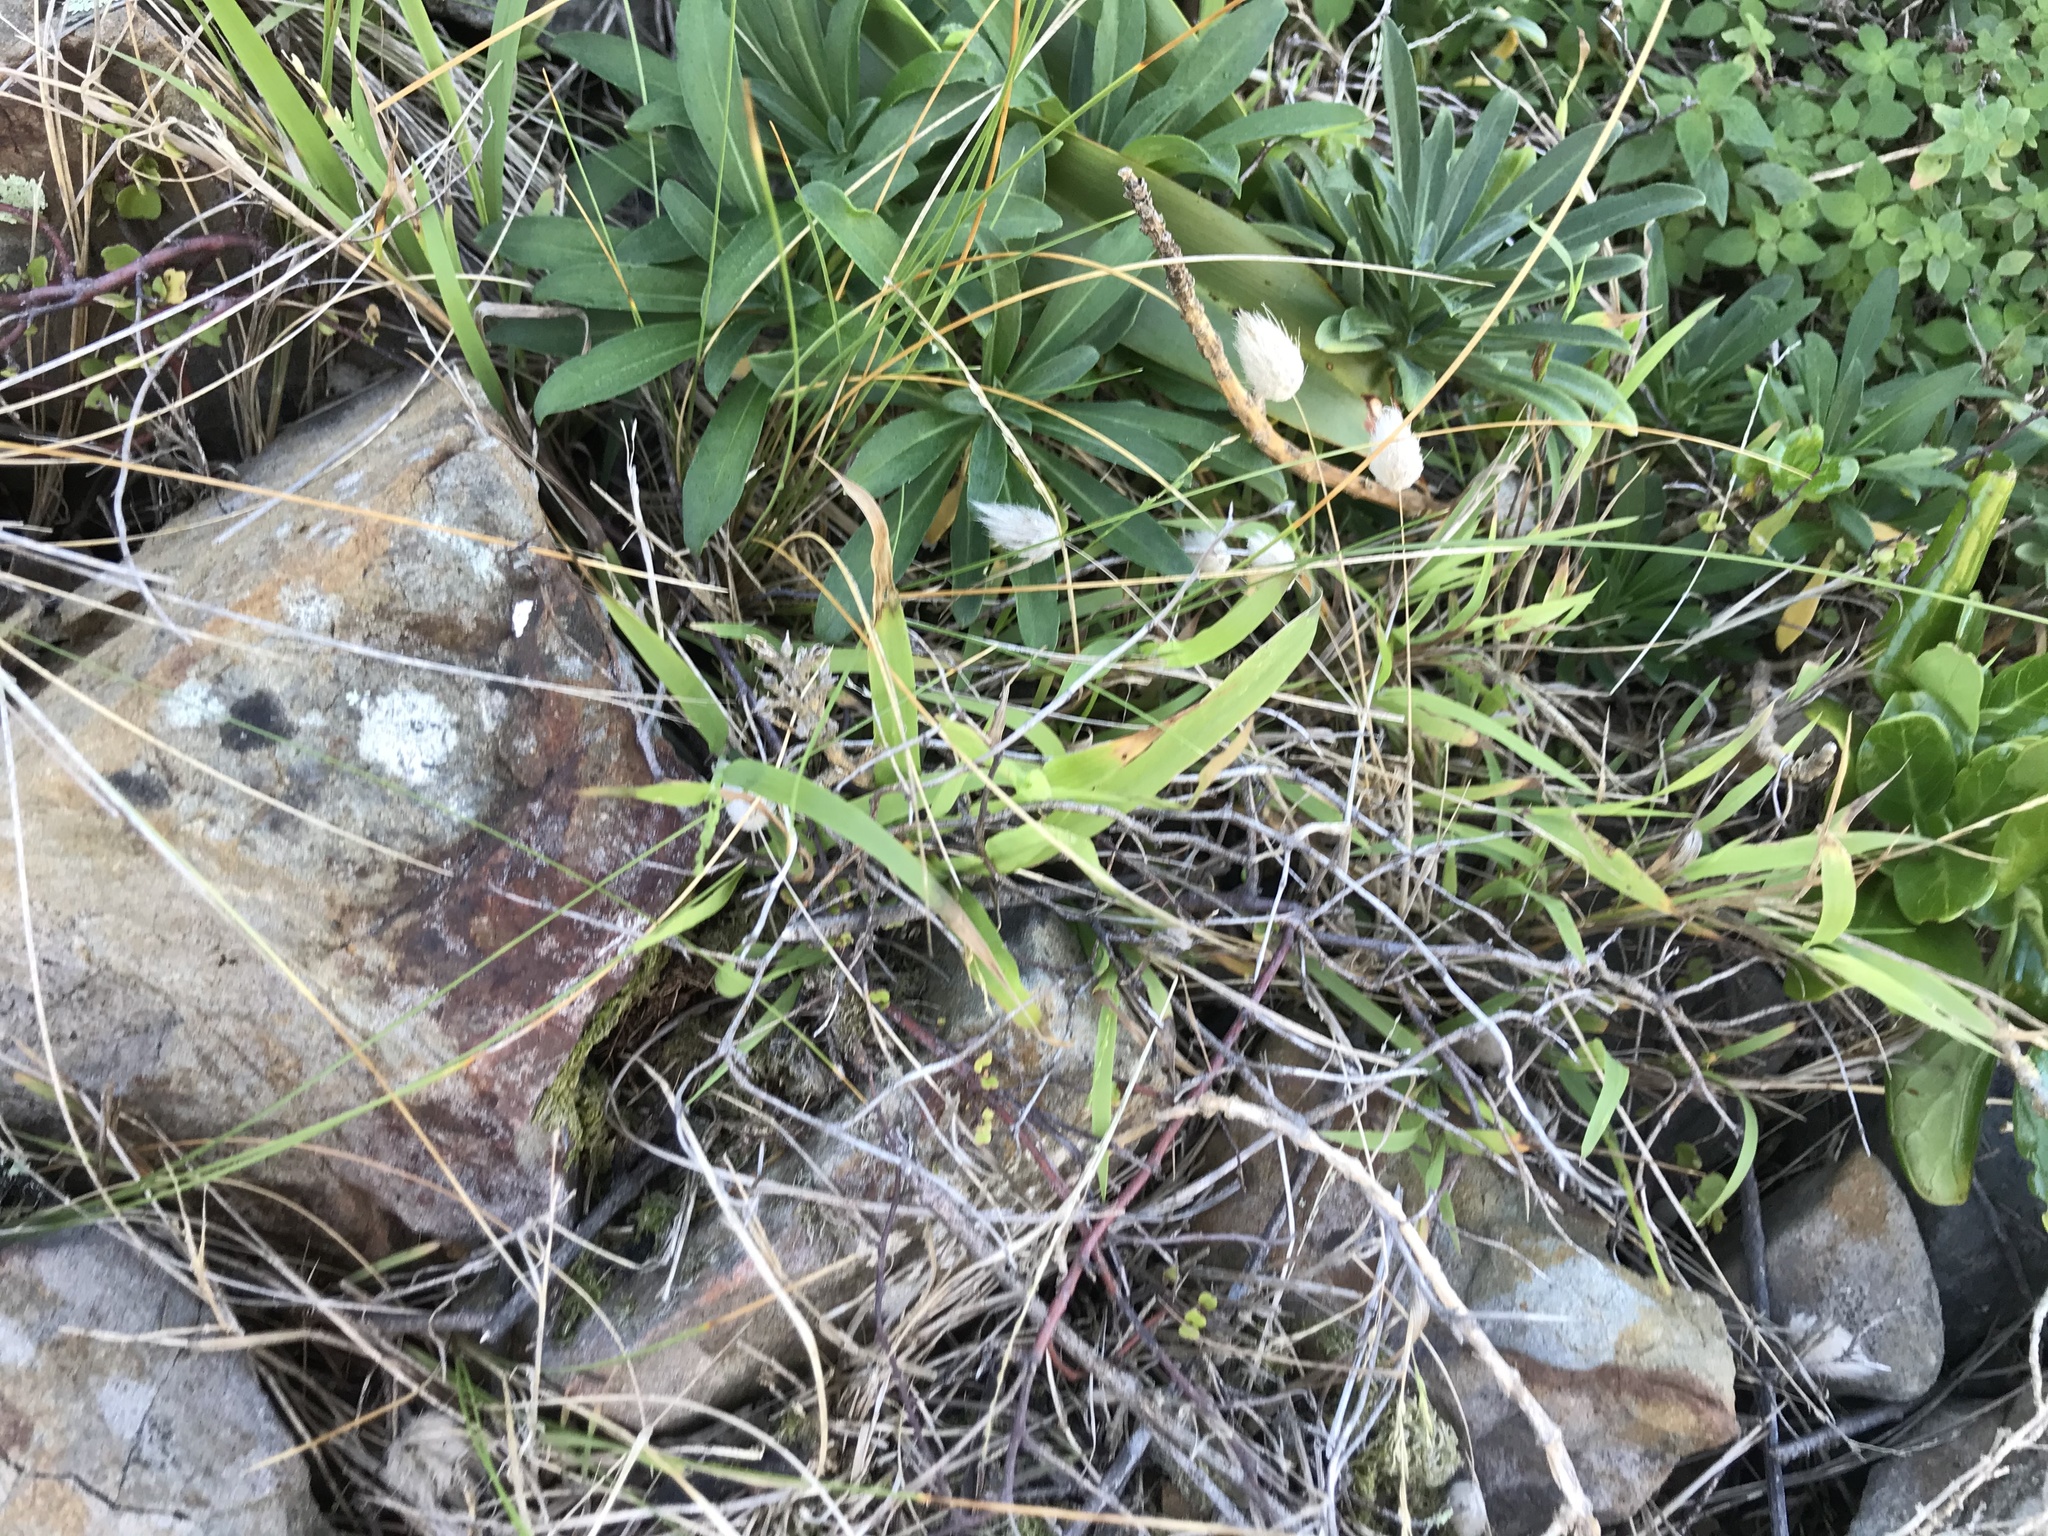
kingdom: Plantae
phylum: Tracheophyta
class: Liliopsida
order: Poales
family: Poaceae
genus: Ehrharta
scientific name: Ehrharta erecta
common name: Panic veldtgrass
